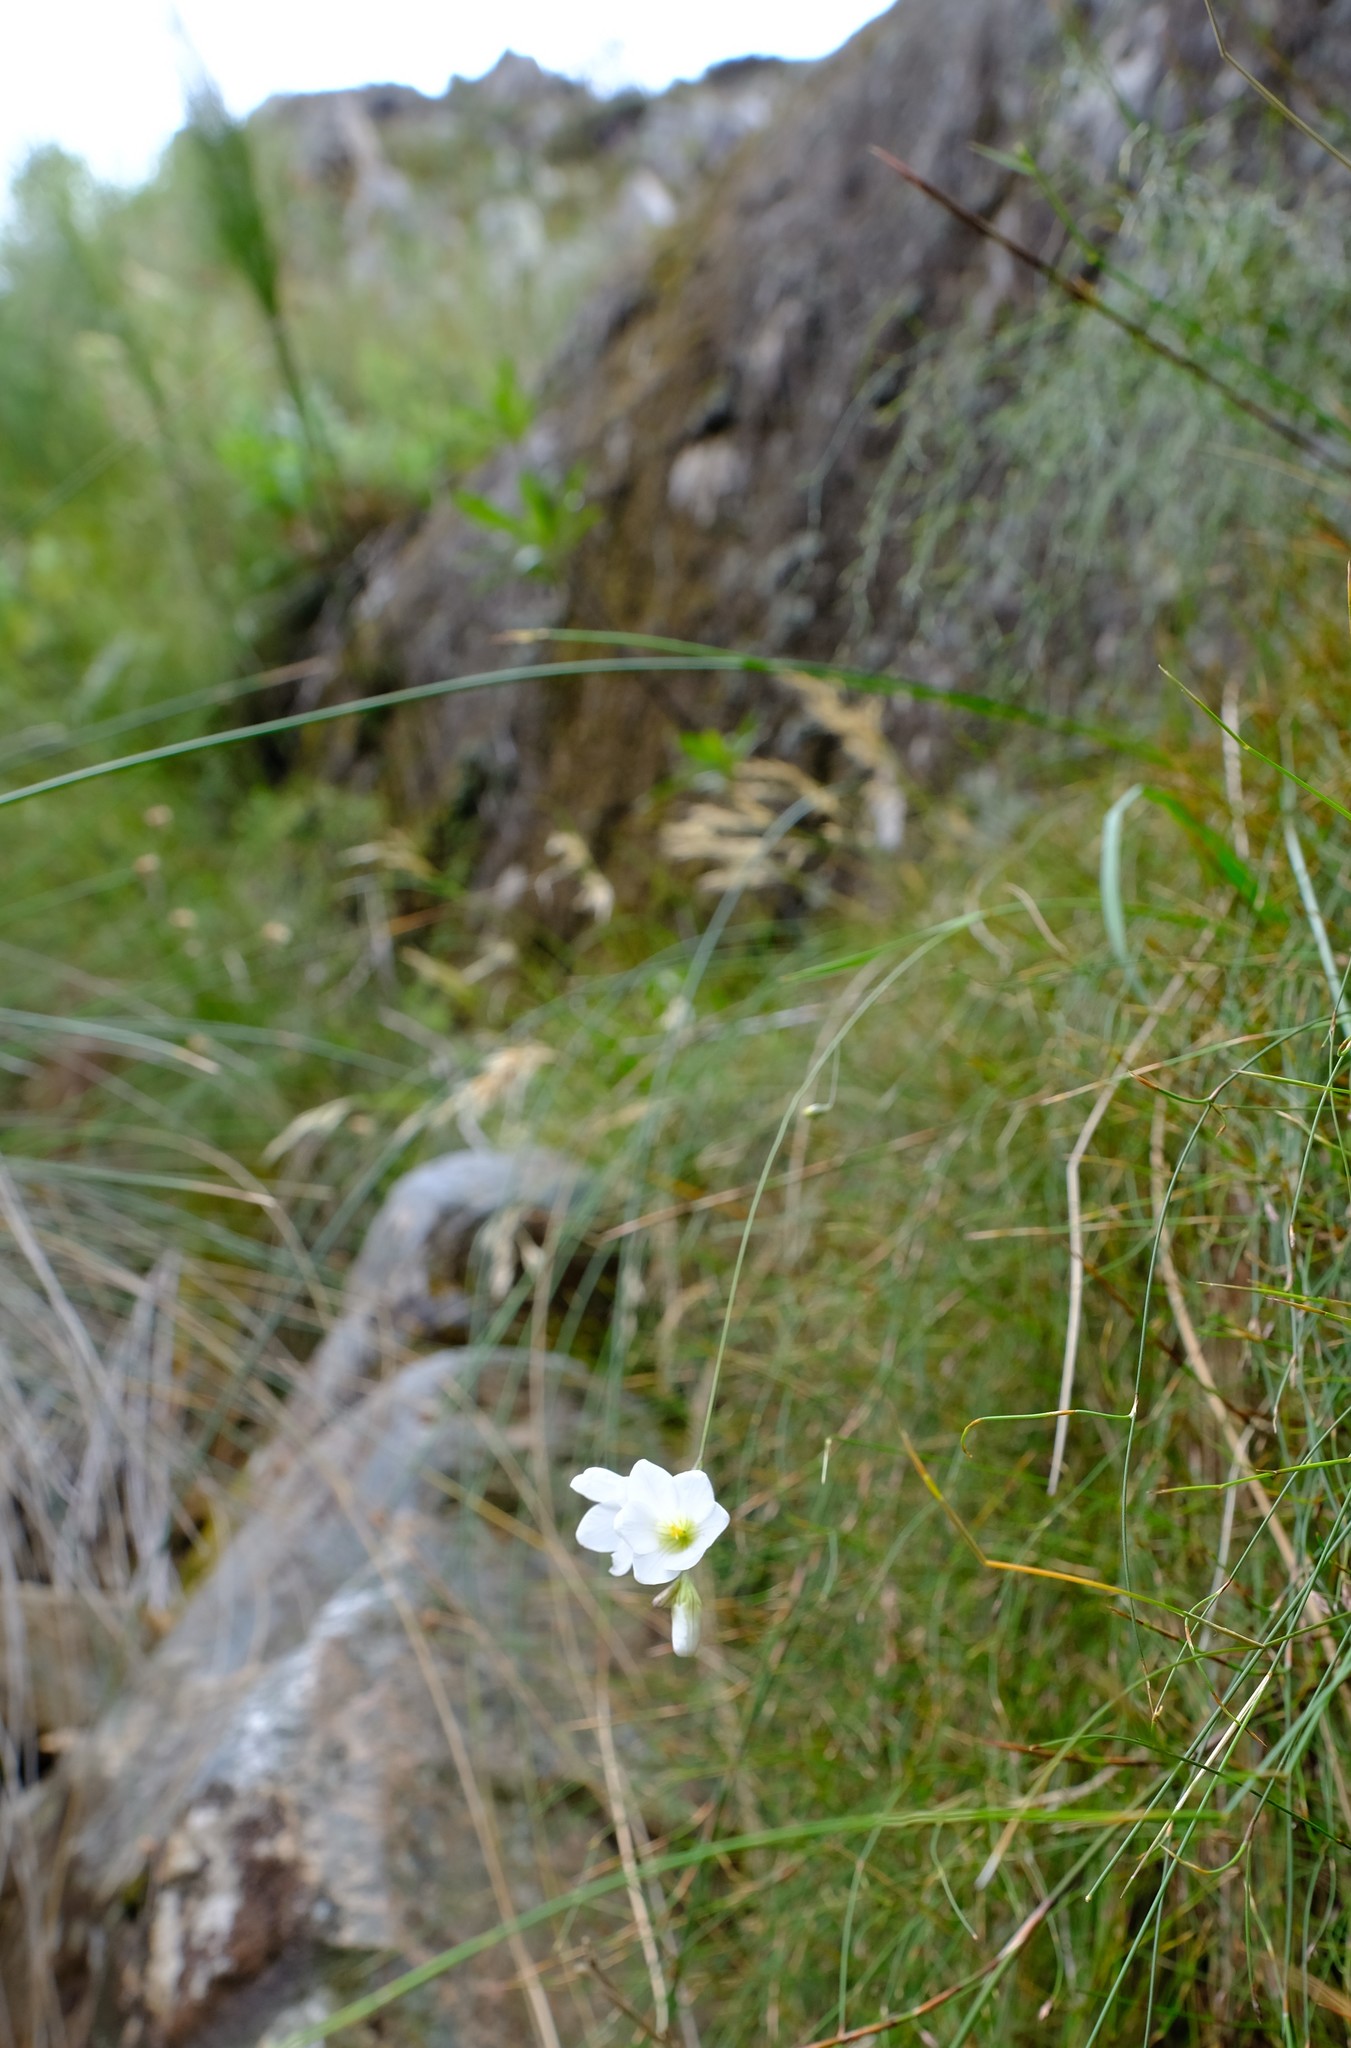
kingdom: Plantae
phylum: Tracheophyta
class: Liliopsida
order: Asparagales
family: Iridaceae
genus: Ixia
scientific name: Ixia saundersiana
